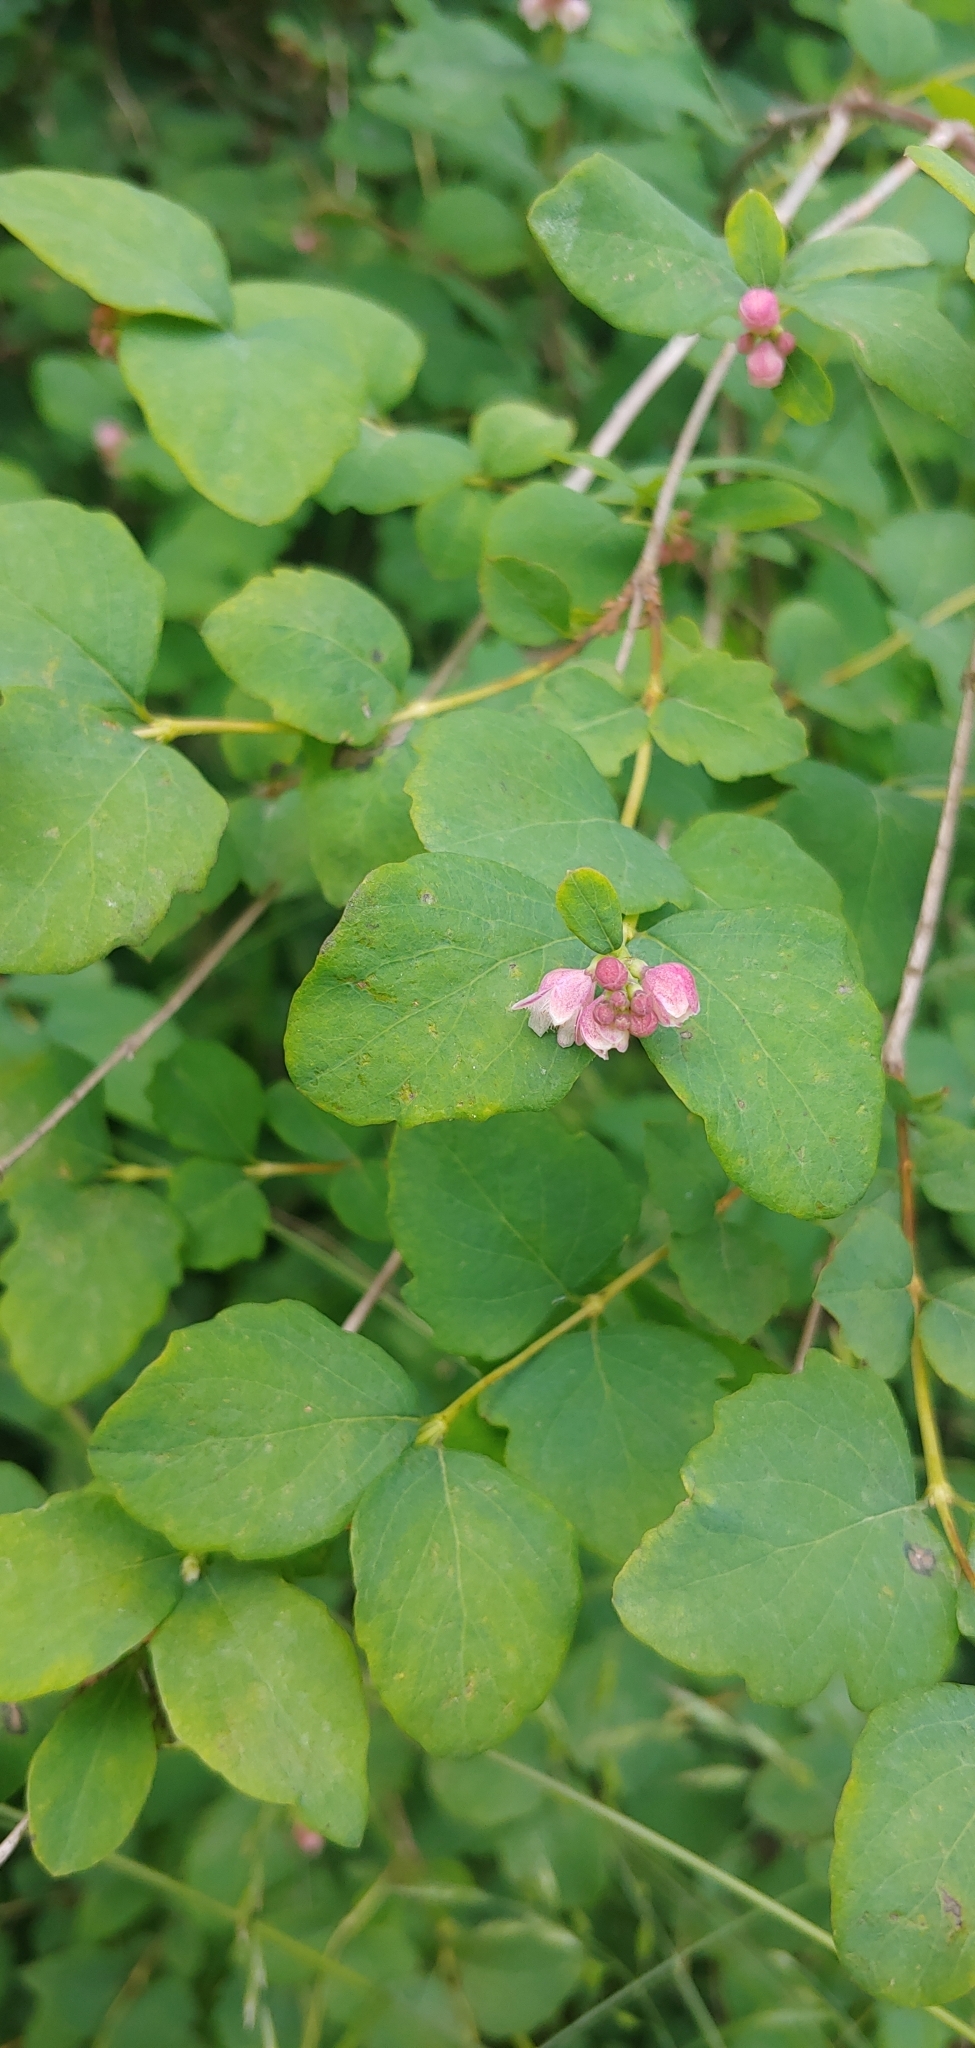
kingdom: Plantae
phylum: Tracheophyta
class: Magnoliopsida
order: Dipsacales
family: Caprifoliaceae
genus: Symphoricarpos
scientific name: Symphoricarpos albus
